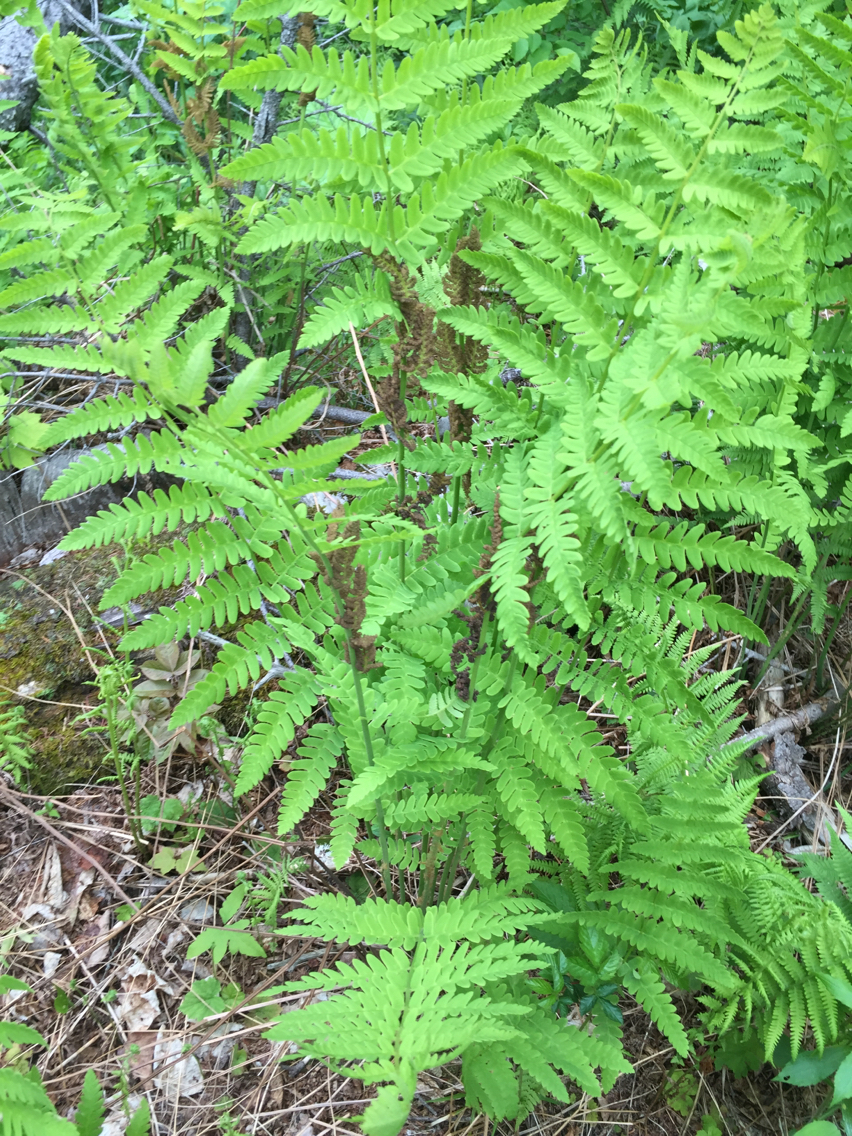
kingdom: Plantae
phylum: Tracheophyta
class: Polypodiopsida
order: Osmundales
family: Osmundaceae
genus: Claytosmunda
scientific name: Claytosmunda claytoniana
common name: Clayton's fern
